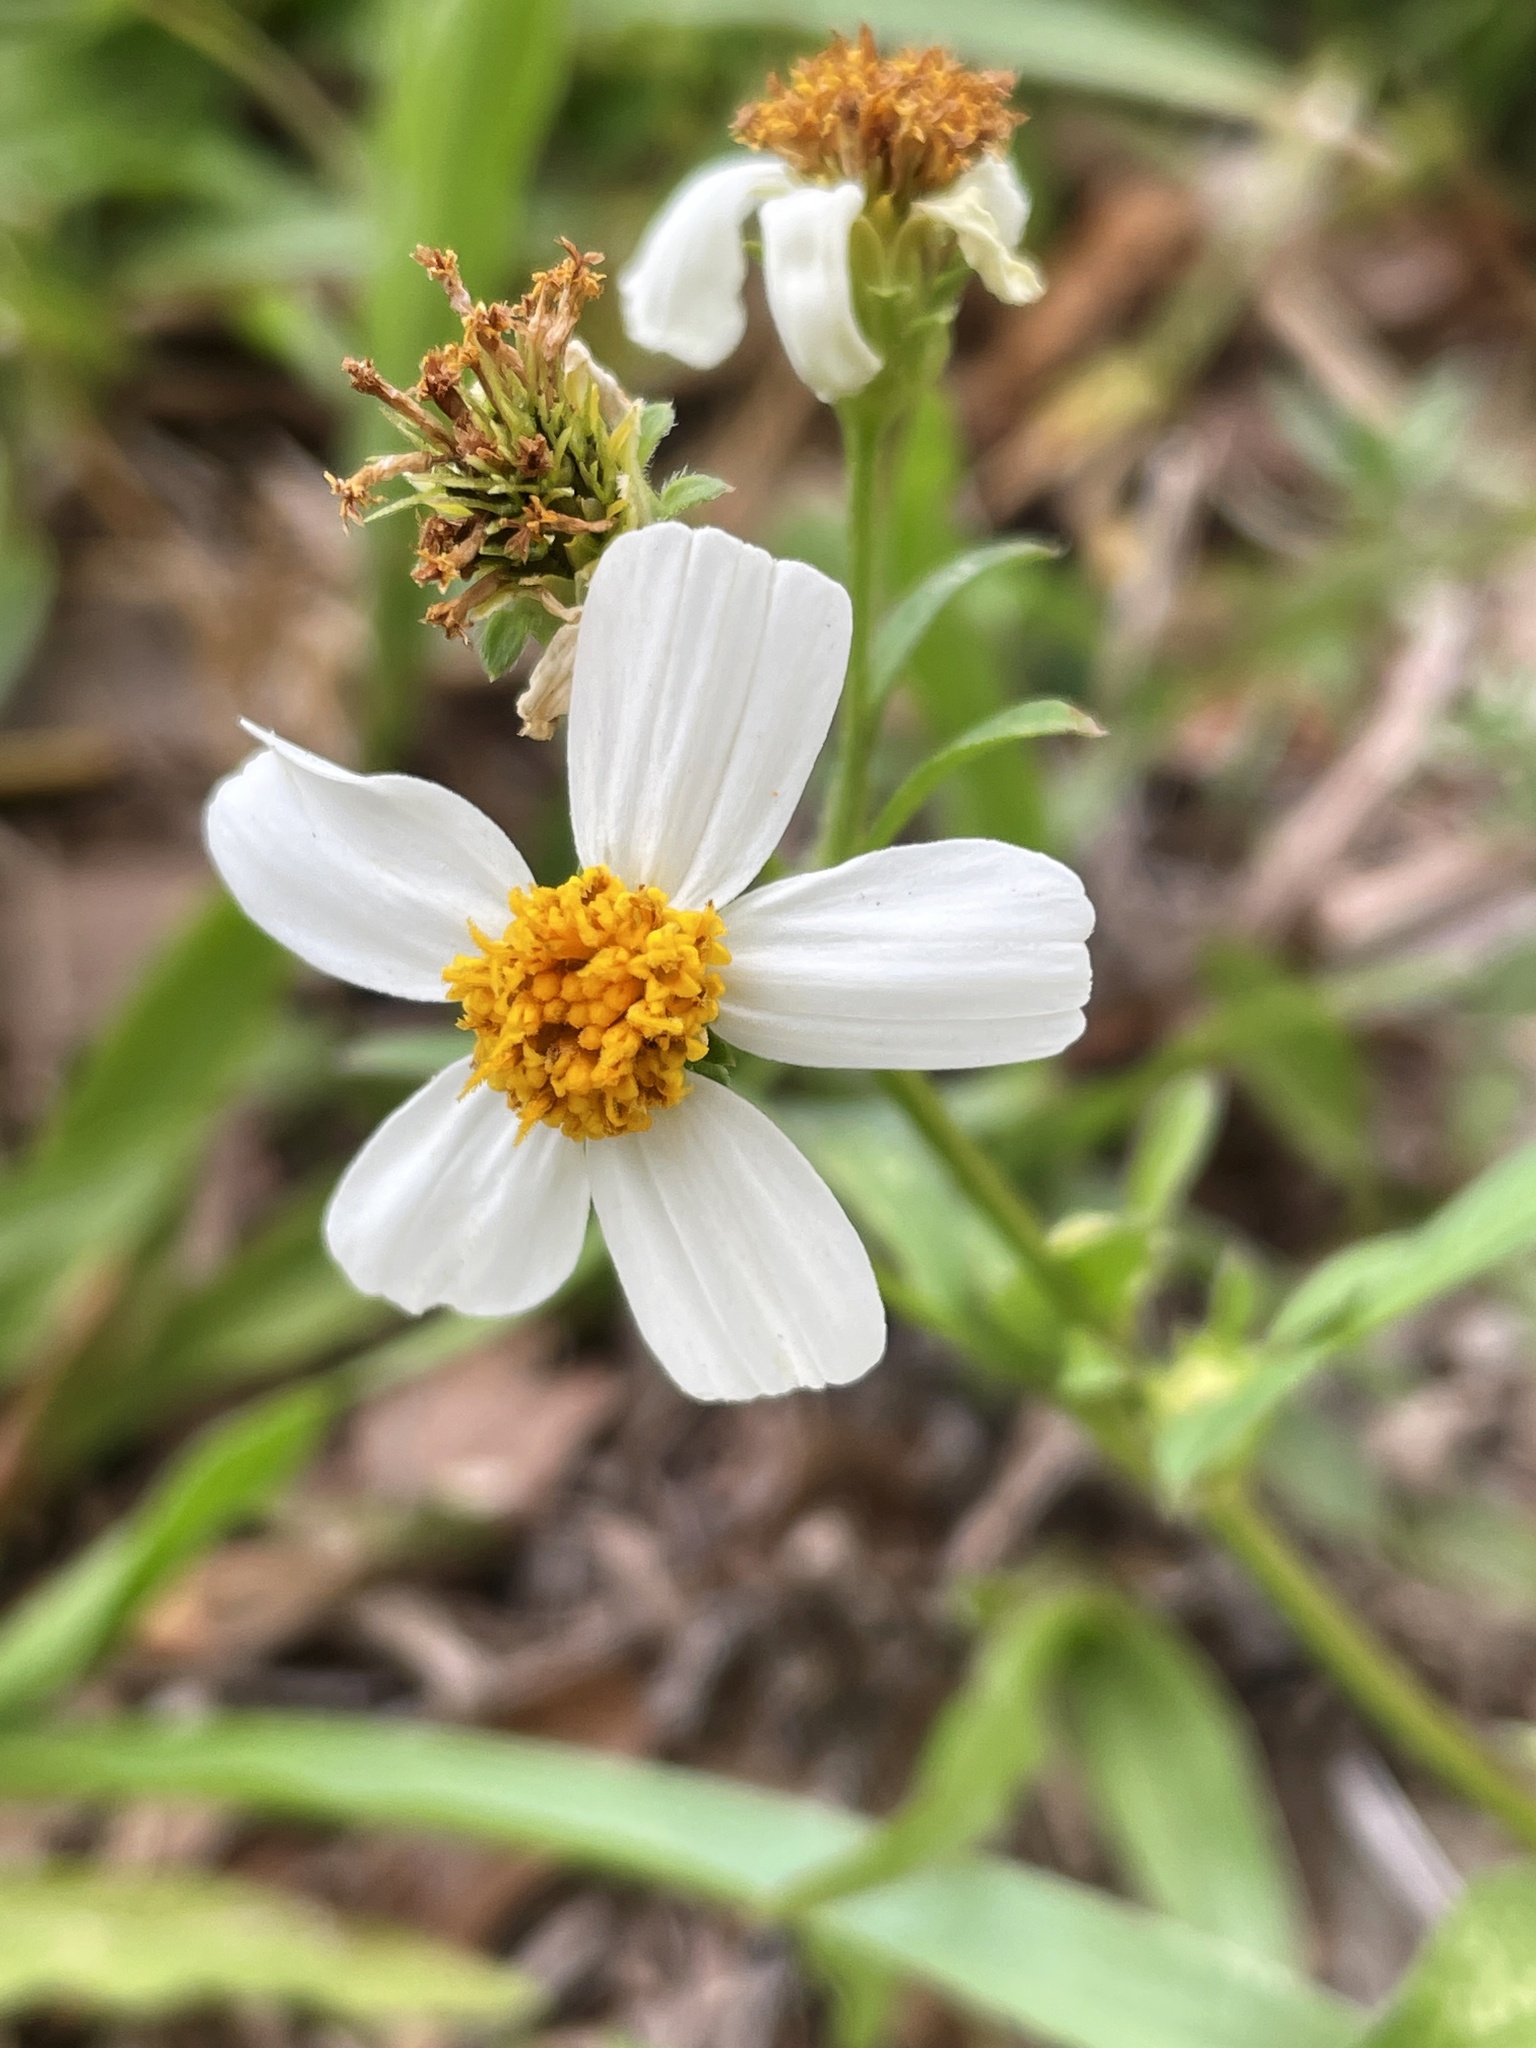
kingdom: Plantae
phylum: Tracheophyta
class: Magnoliopsida
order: Asterales
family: Asteraceae
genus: Bidens
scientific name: Bidens alba
